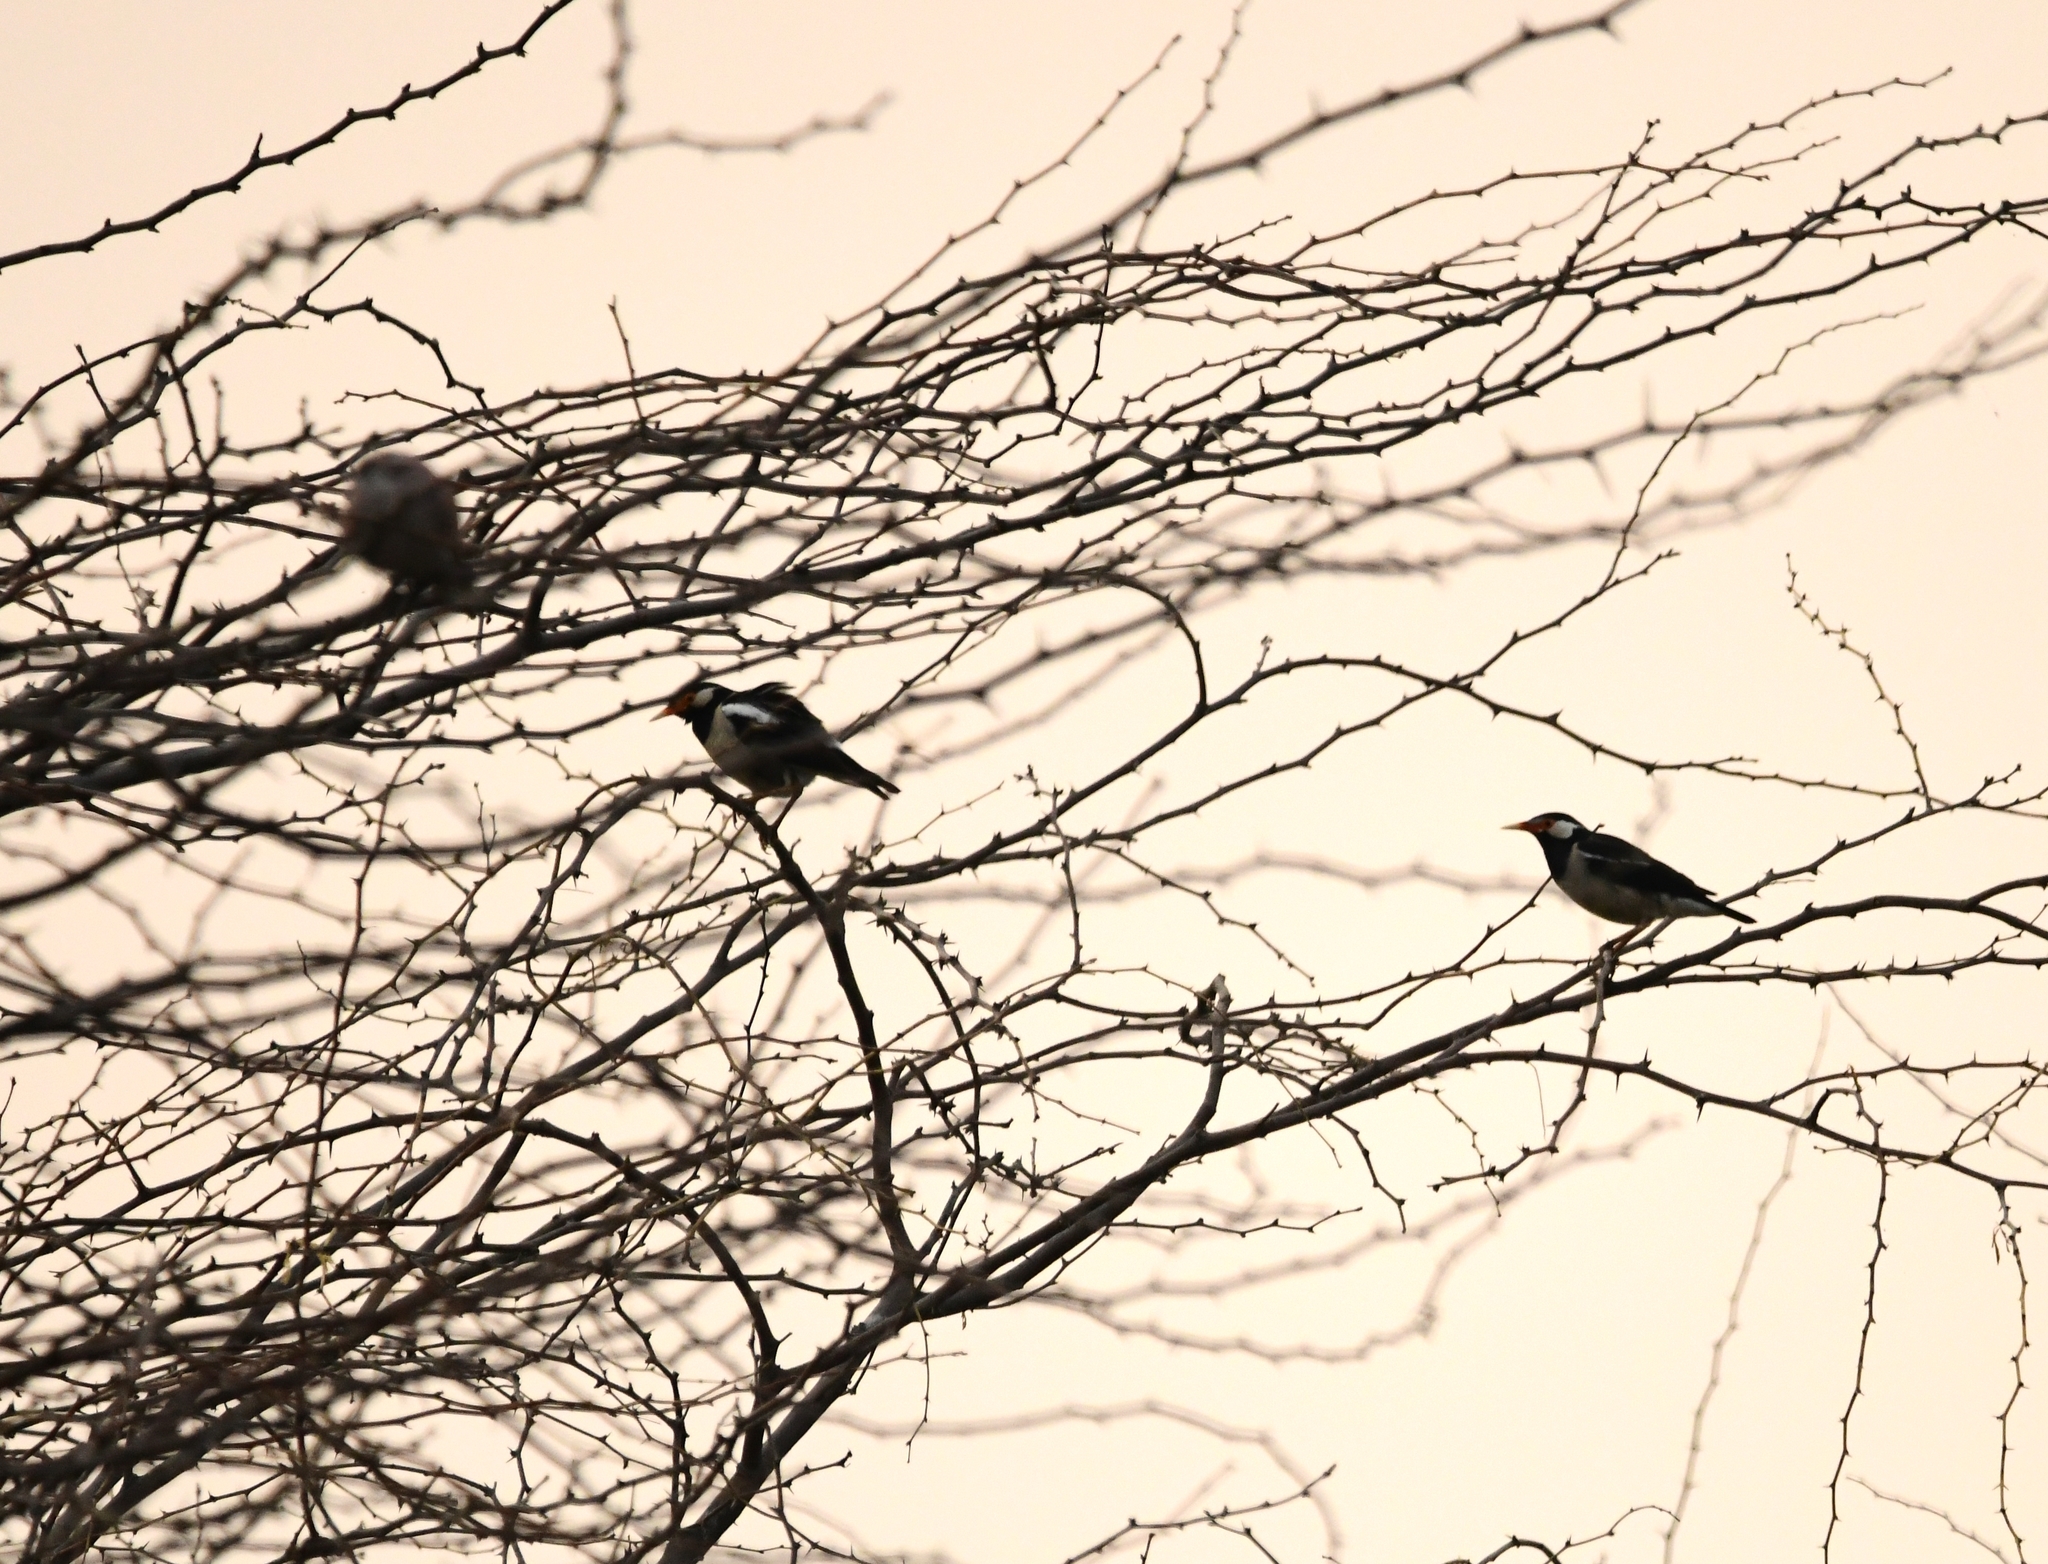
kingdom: Animalia
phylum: Chordata
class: Aves
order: Passeriformes
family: Sturnidae
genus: Gracupica
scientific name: Gracupica contra
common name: Pied myna
